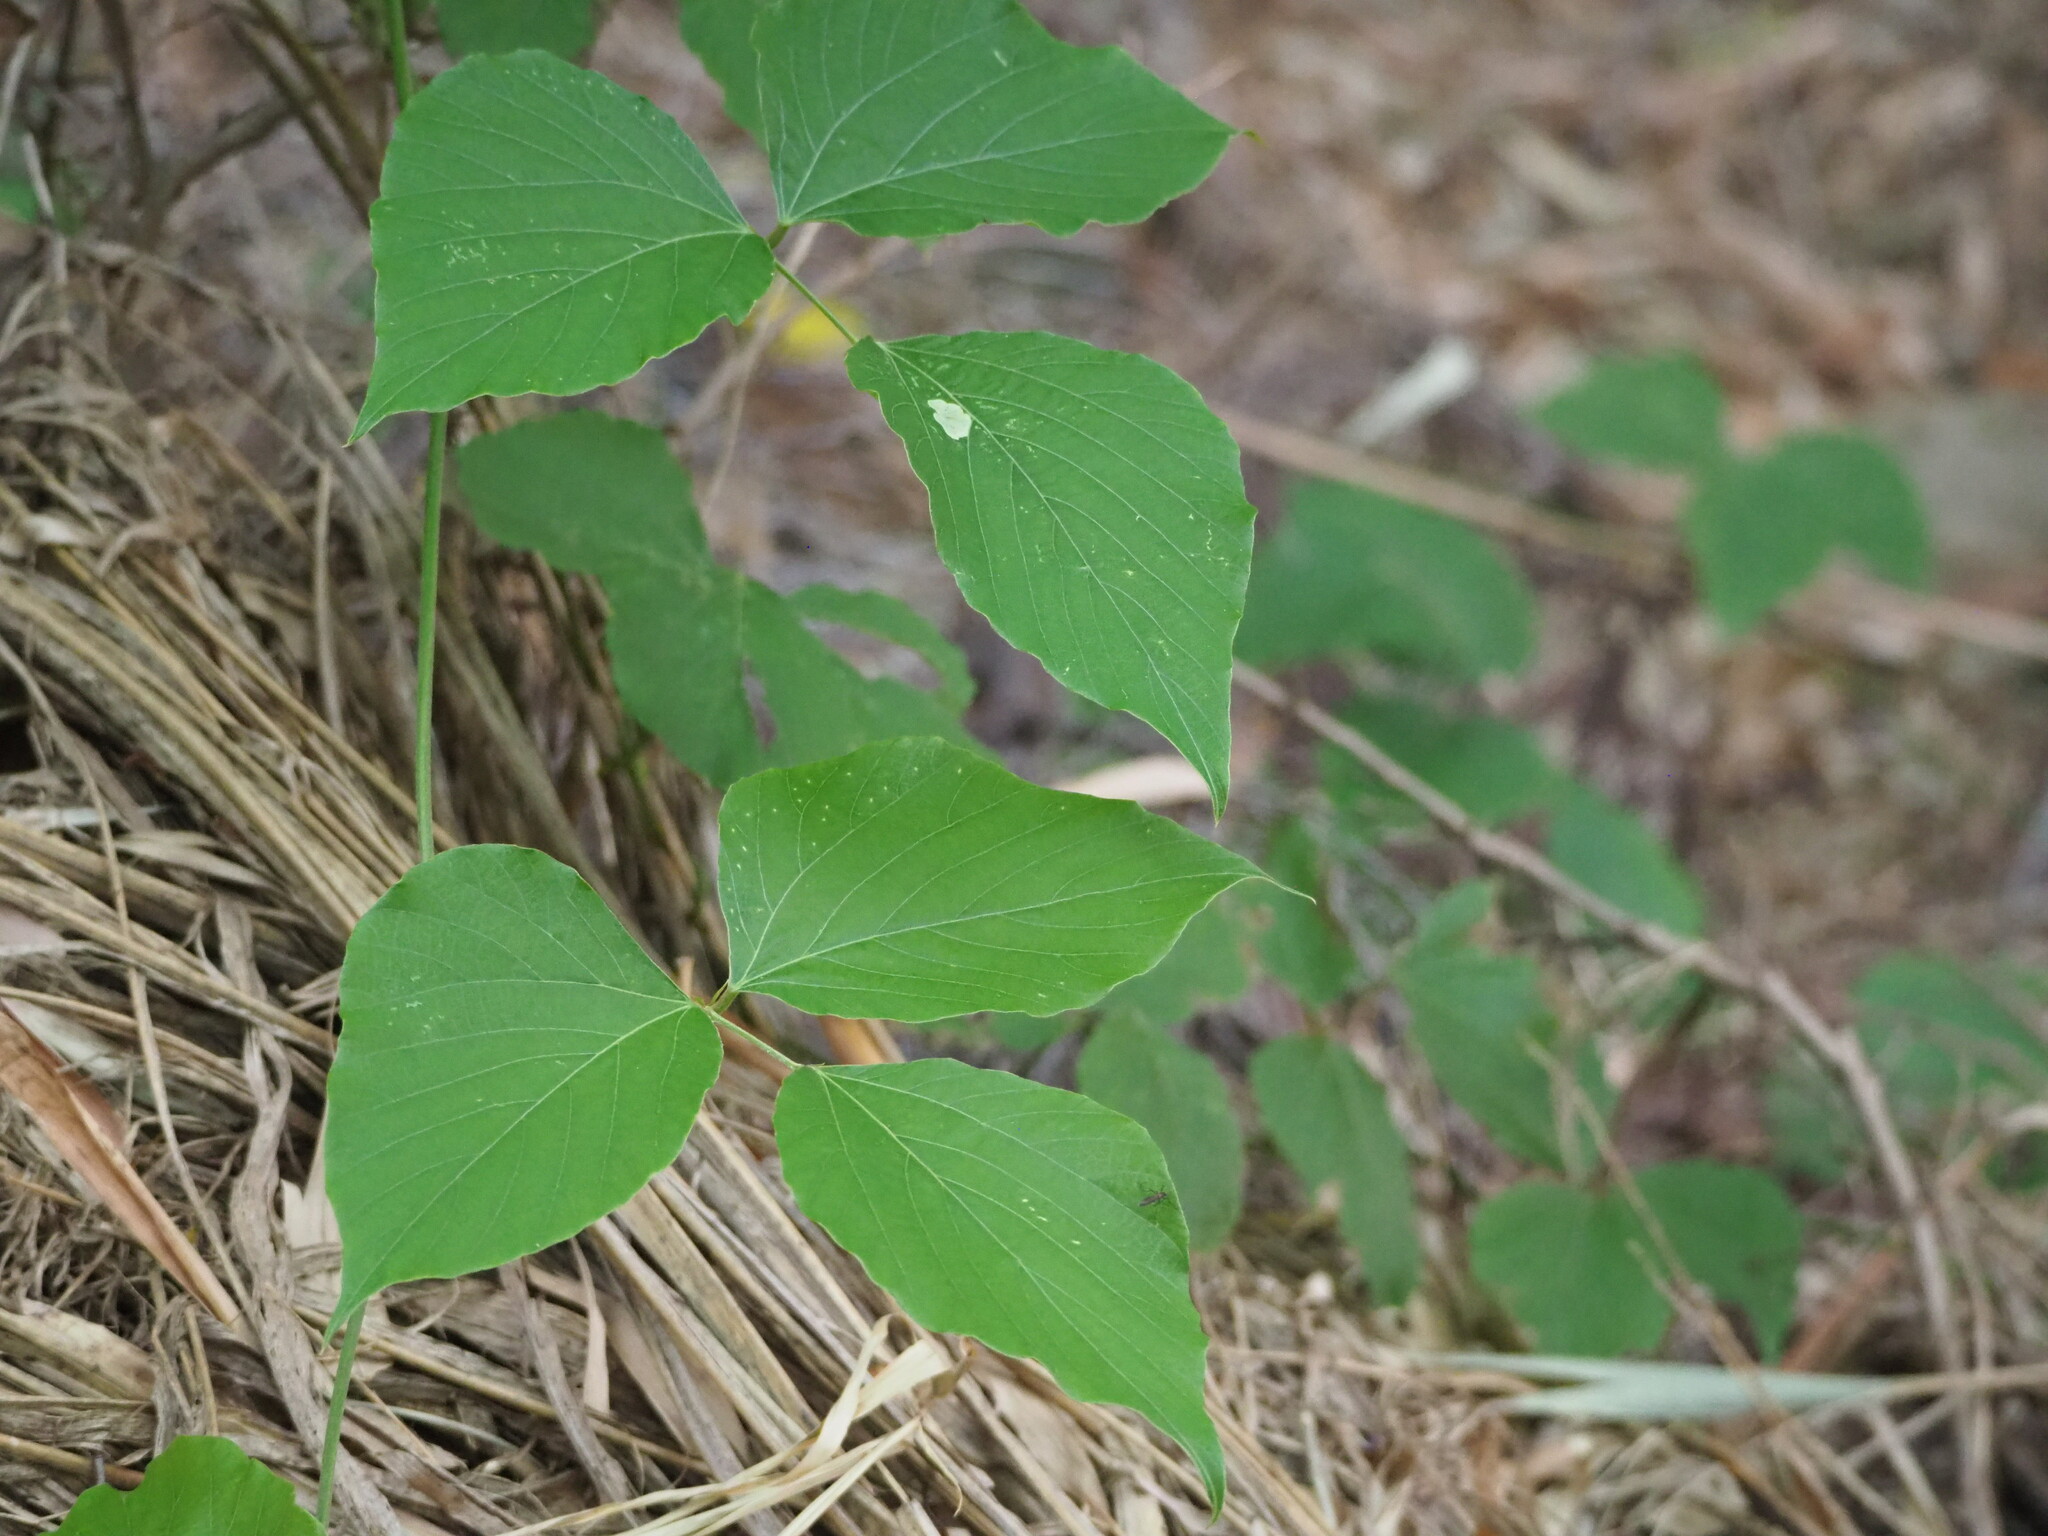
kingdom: Plantae
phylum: Tracheophyta
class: Magnoliopsida
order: Fabales
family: Fabaceae
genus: Pueraria
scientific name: Pueraria montana
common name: Kudzu
